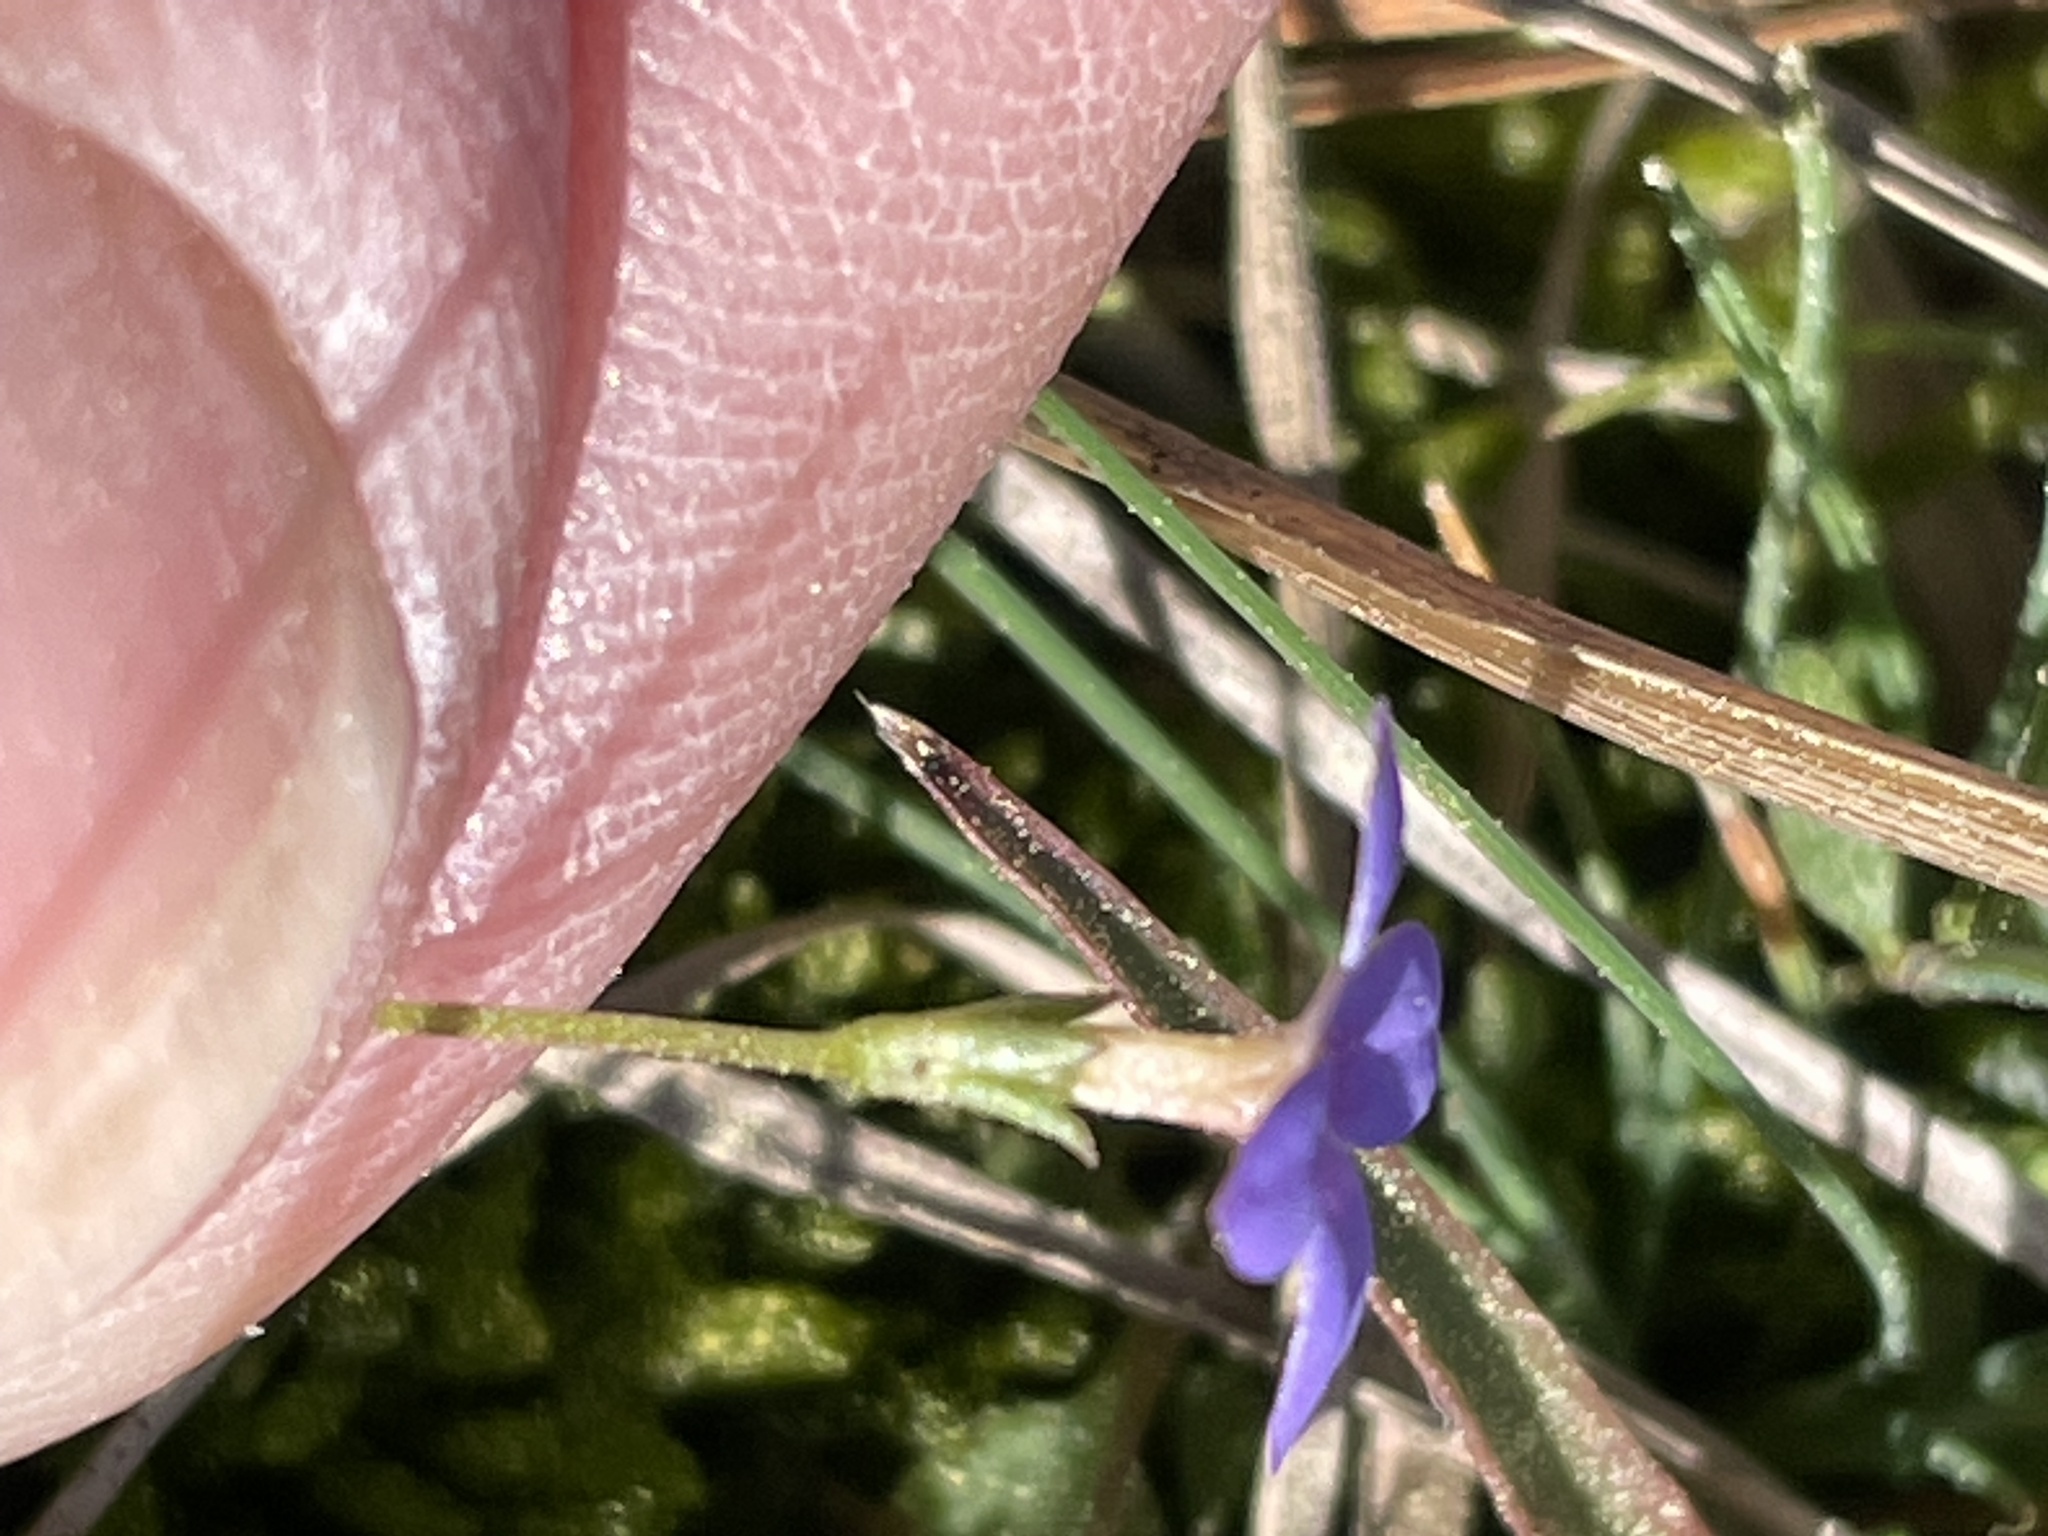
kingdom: Plantae
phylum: Tracheophyta
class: Magnoliopsida
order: Gentianales
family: Rubiaceae
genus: Houstonia
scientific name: Houstonia pusilla
